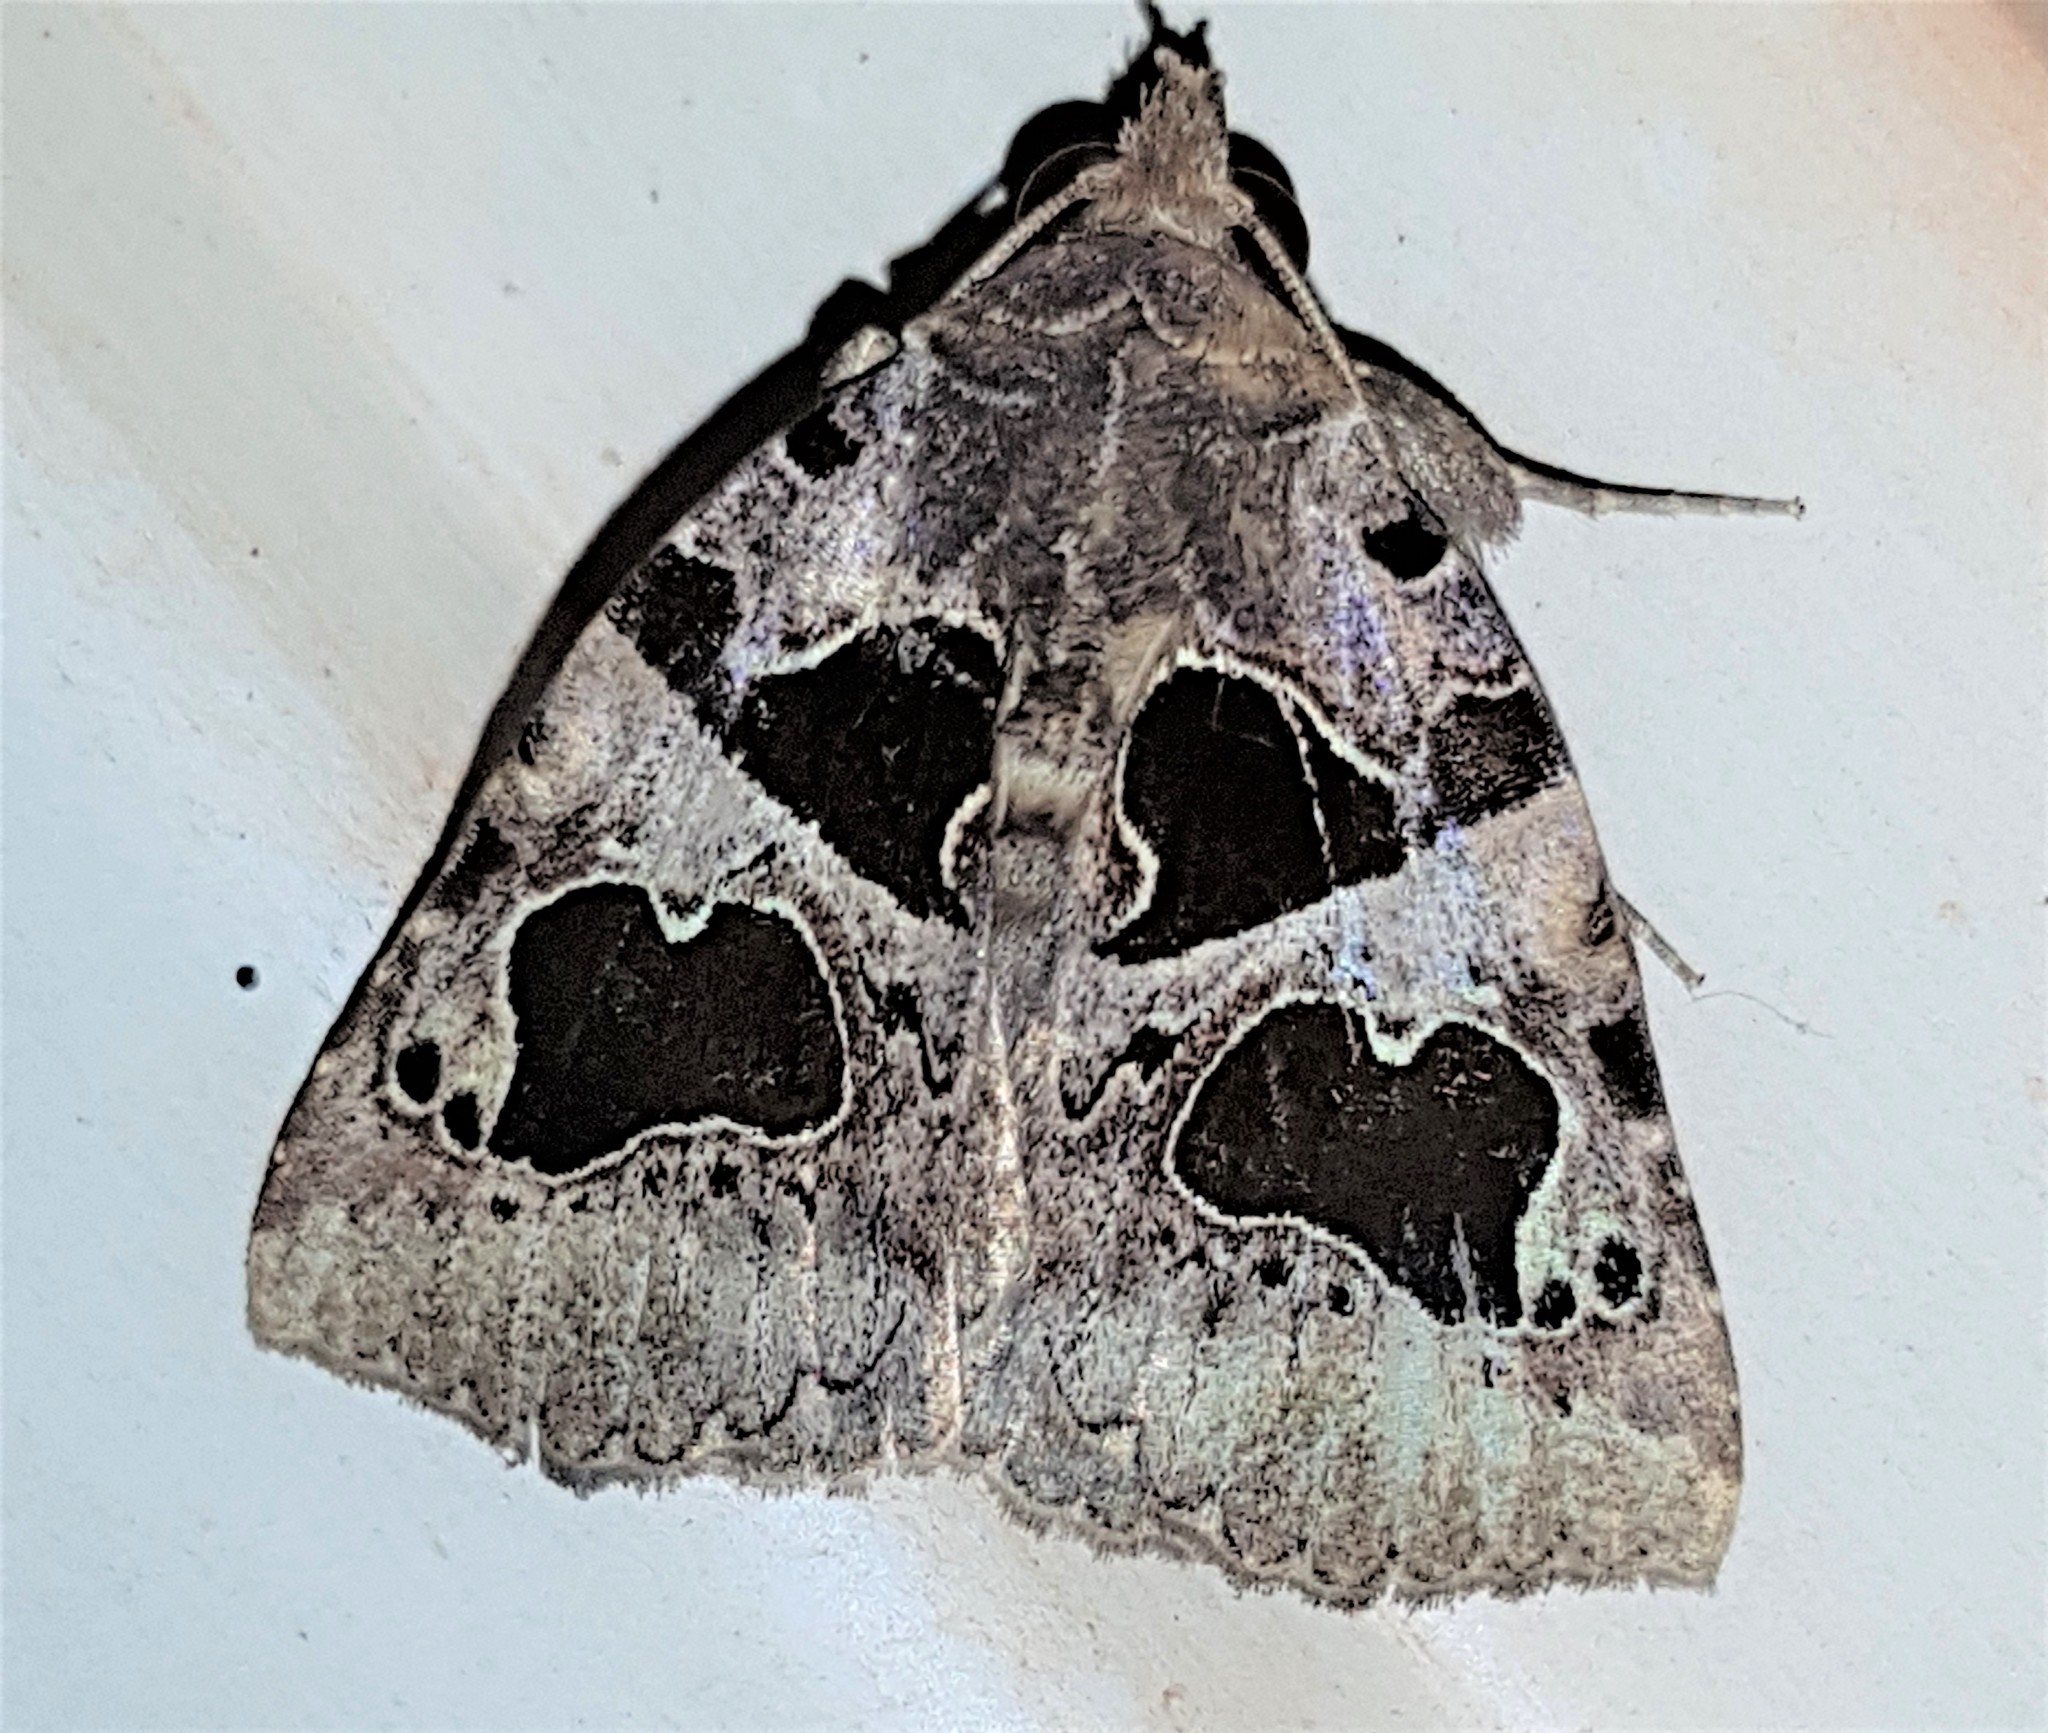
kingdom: Animalia
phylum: Arthropoda
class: Insecta
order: Lepidoptera
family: Erebidae
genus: Athyrma
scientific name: Athyrma adjutrix
